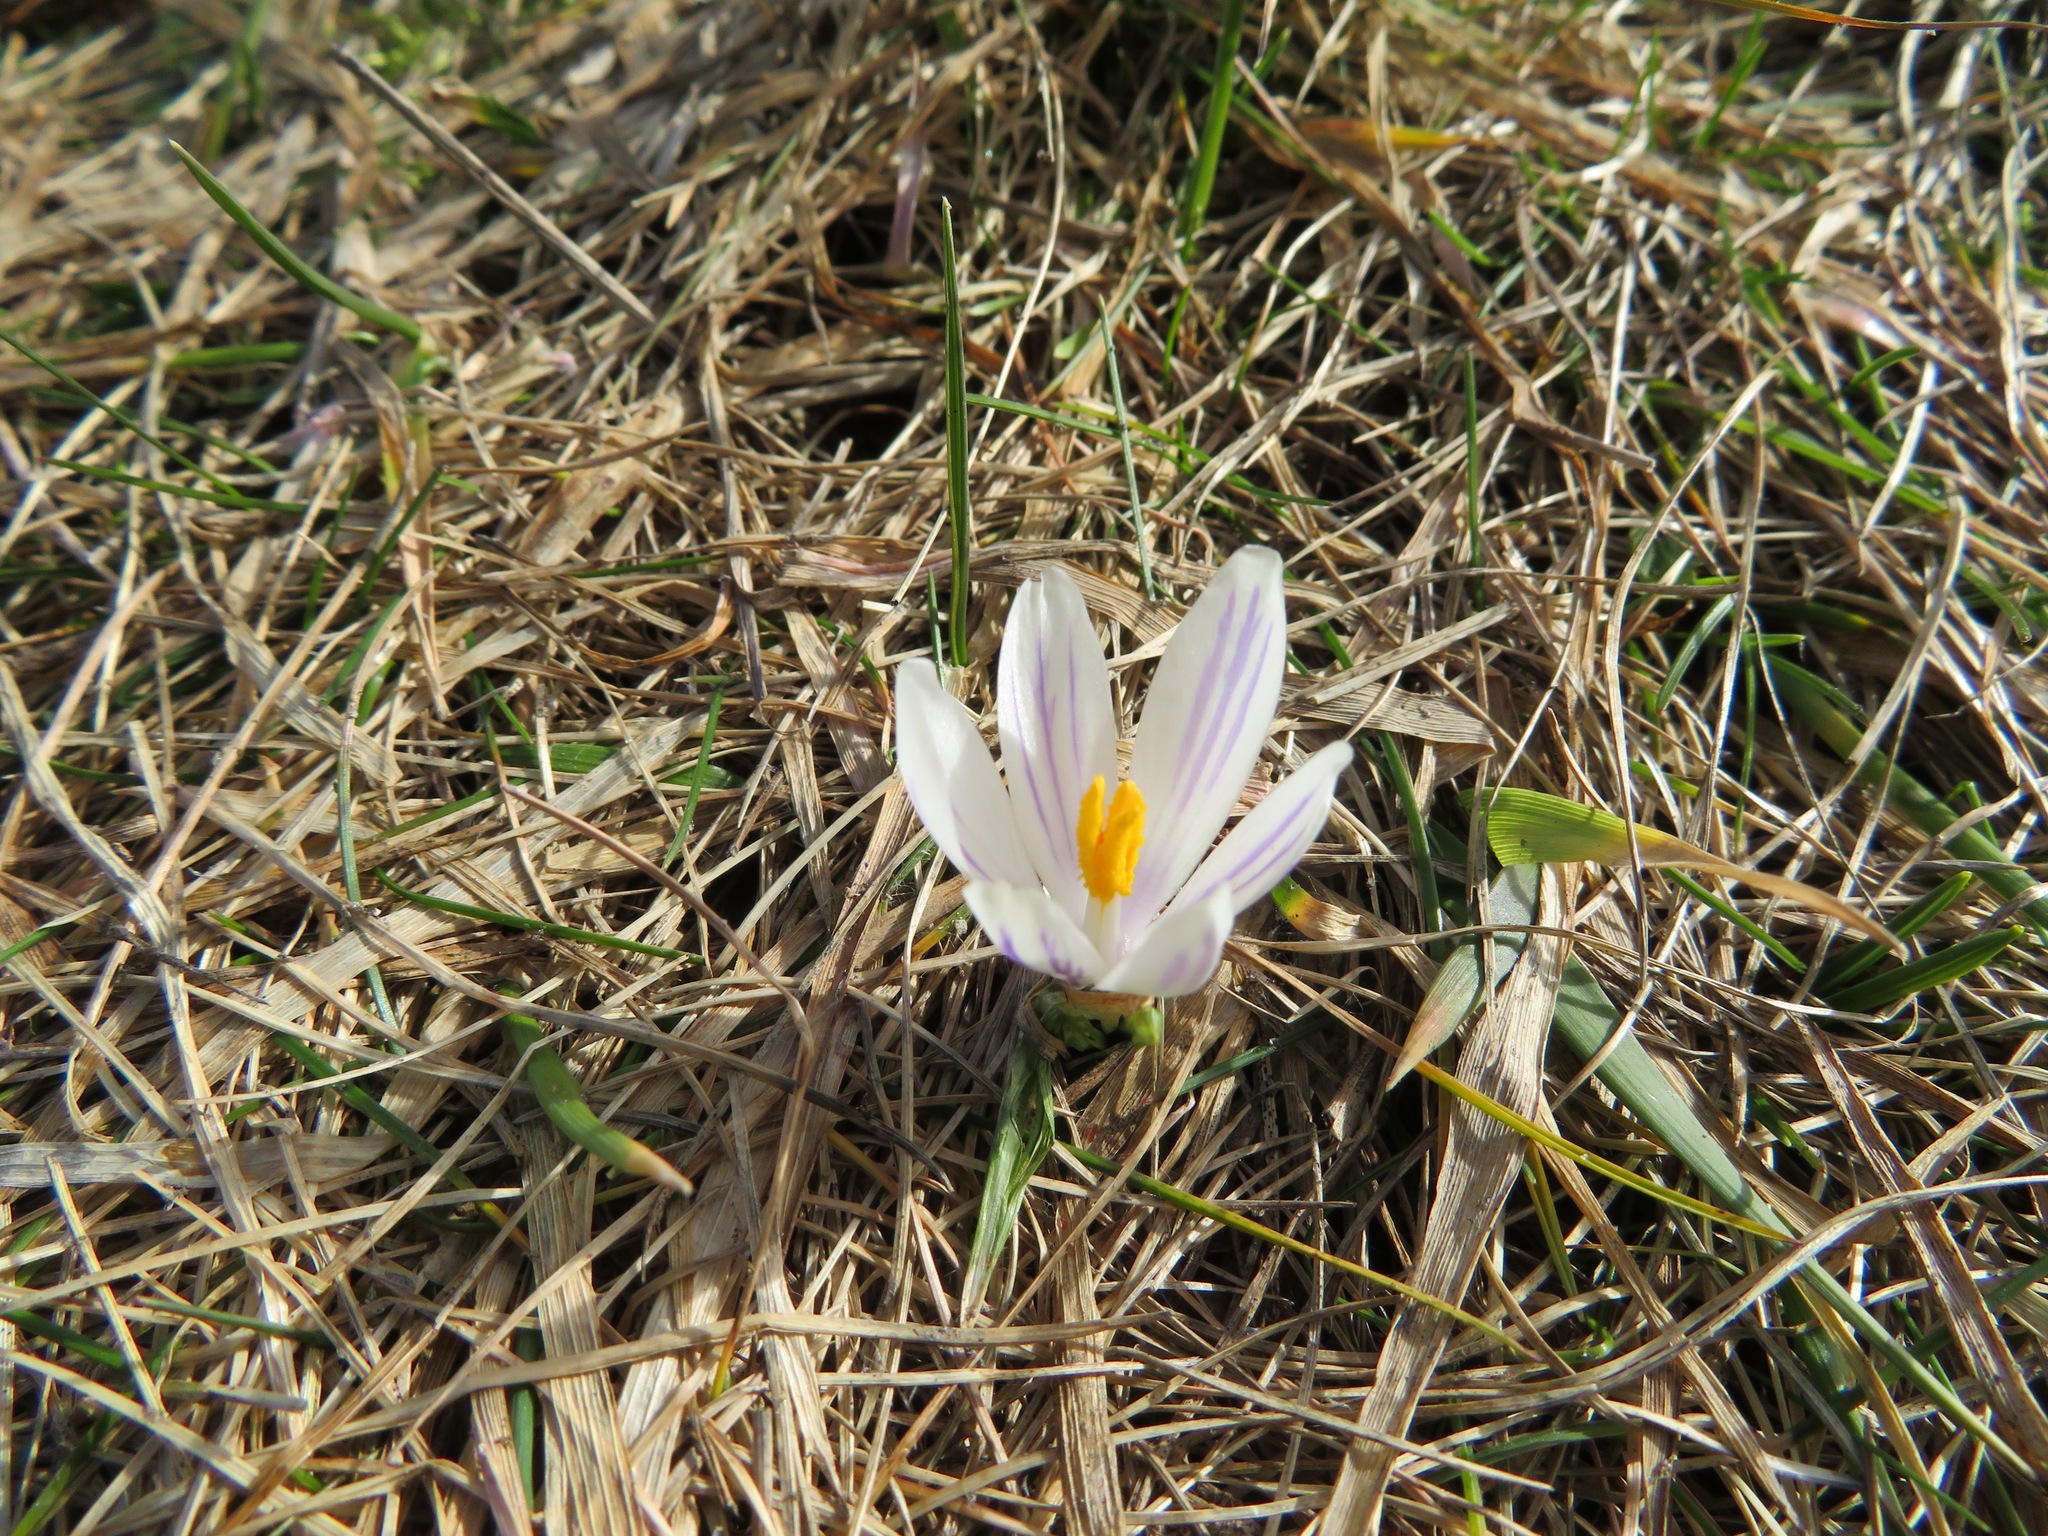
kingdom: Plantae
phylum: Tracheophyta
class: Liliopsida
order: Asparagales
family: Iridaceae
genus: Crocus
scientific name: Crocus vernus
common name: Spring crocus
